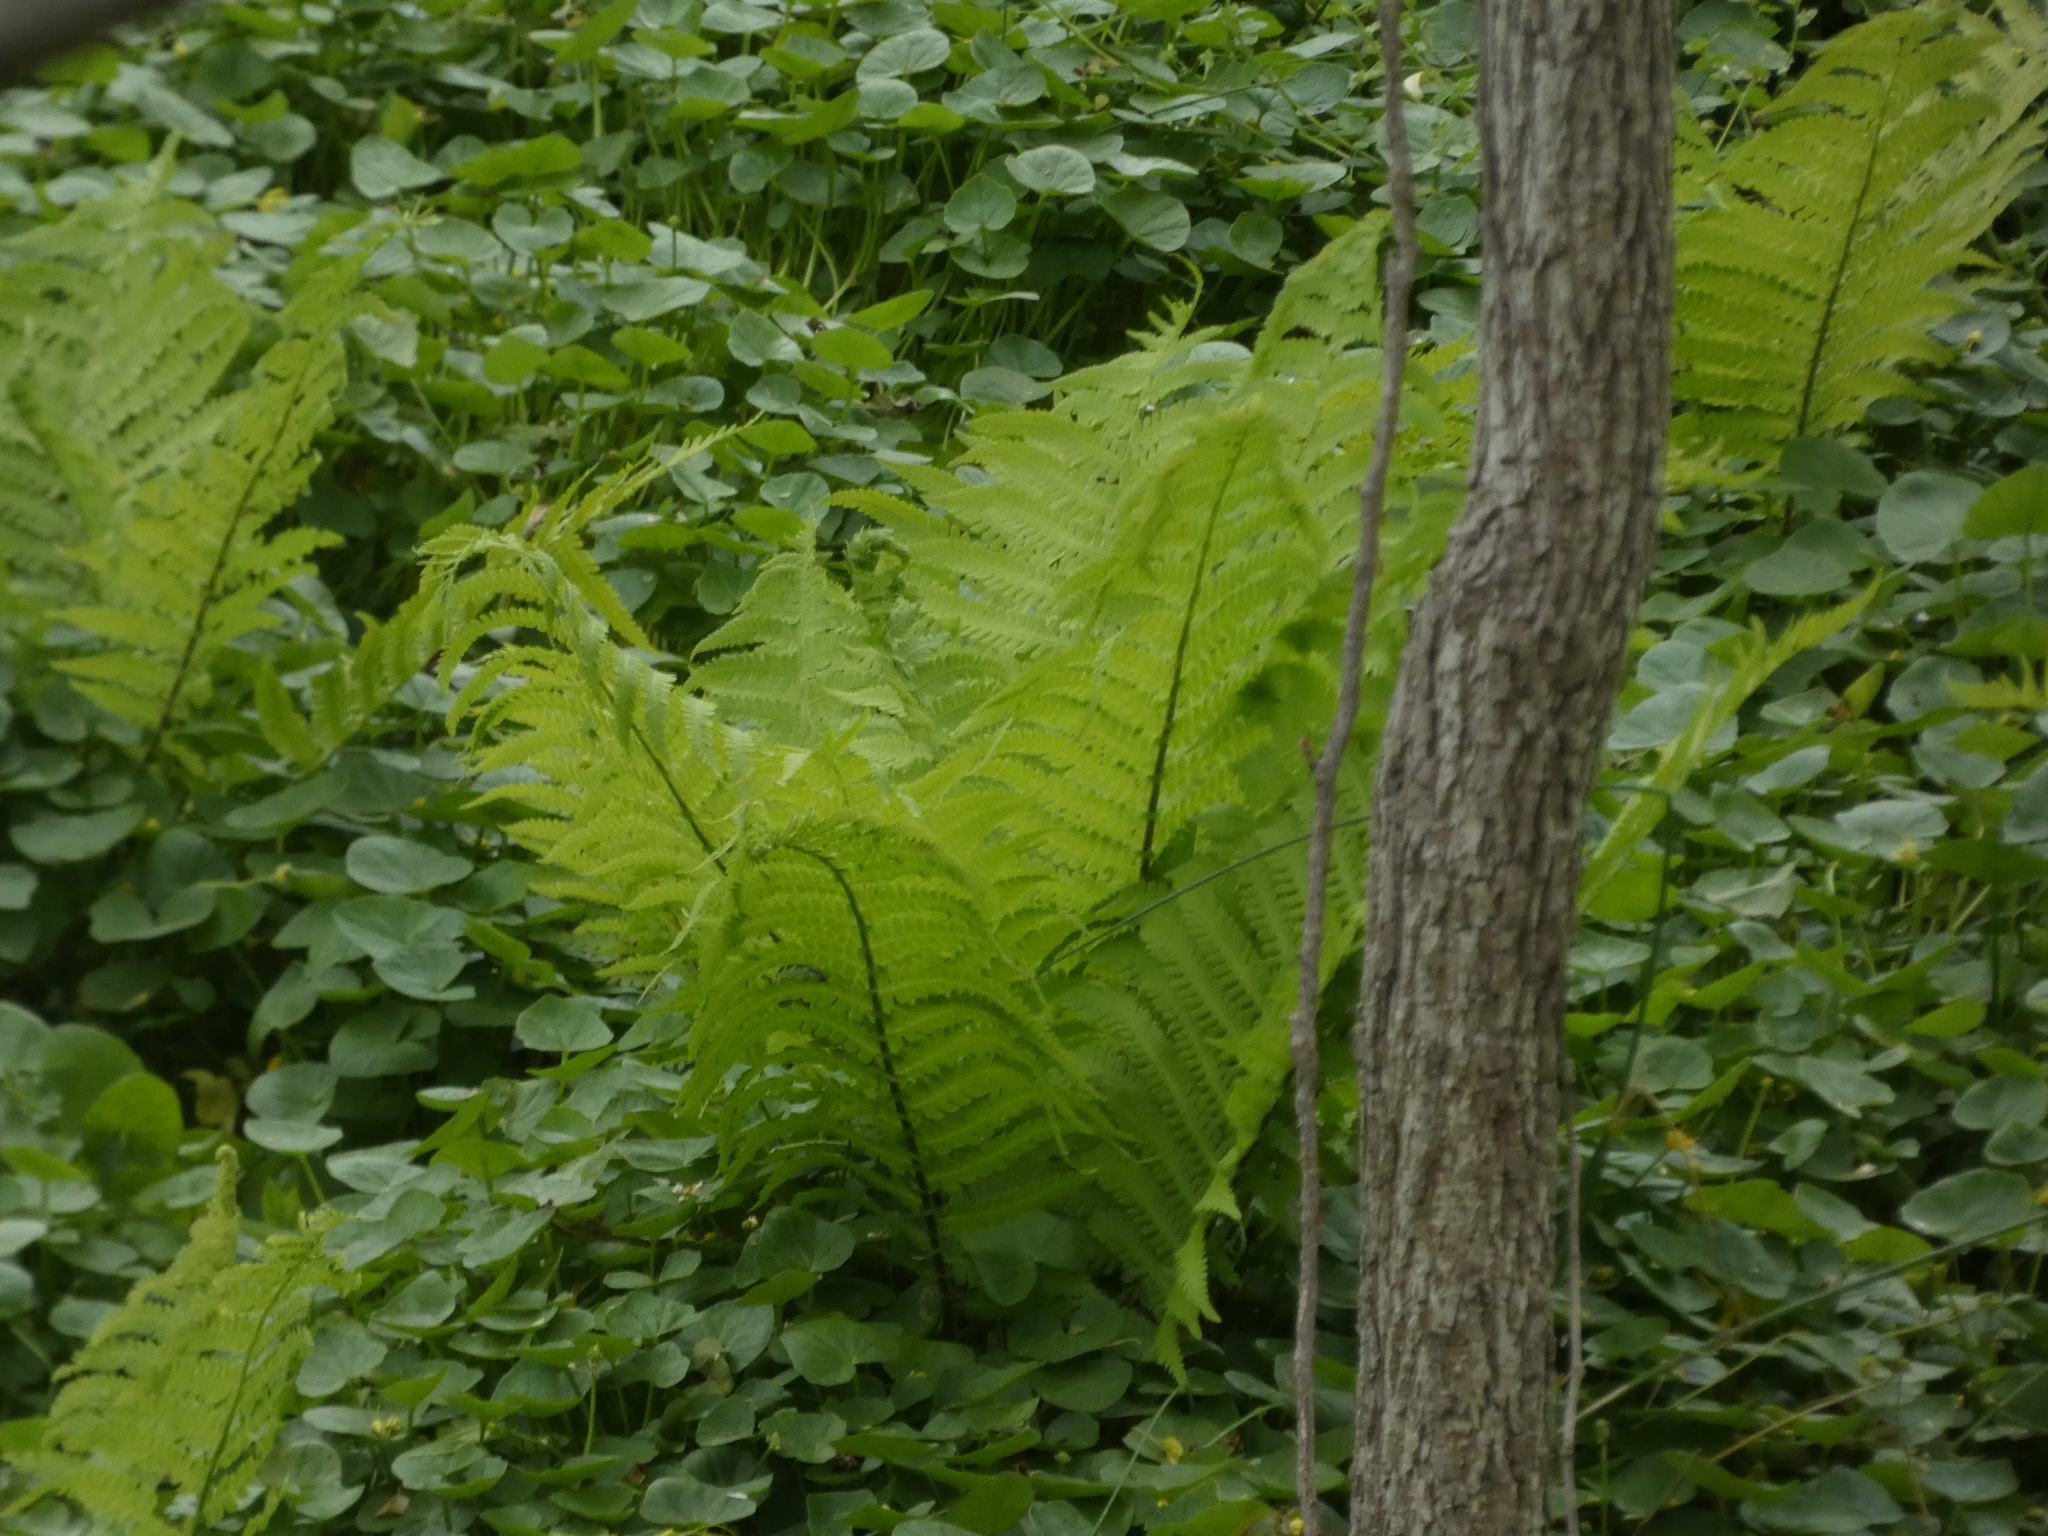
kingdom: Plantae
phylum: Tracheophyta
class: Polypodiopsida
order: Polypodiales
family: Onocleaceae
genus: Matteuccia
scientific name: Matteuccia struthiopteris
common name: Ostrich fern
